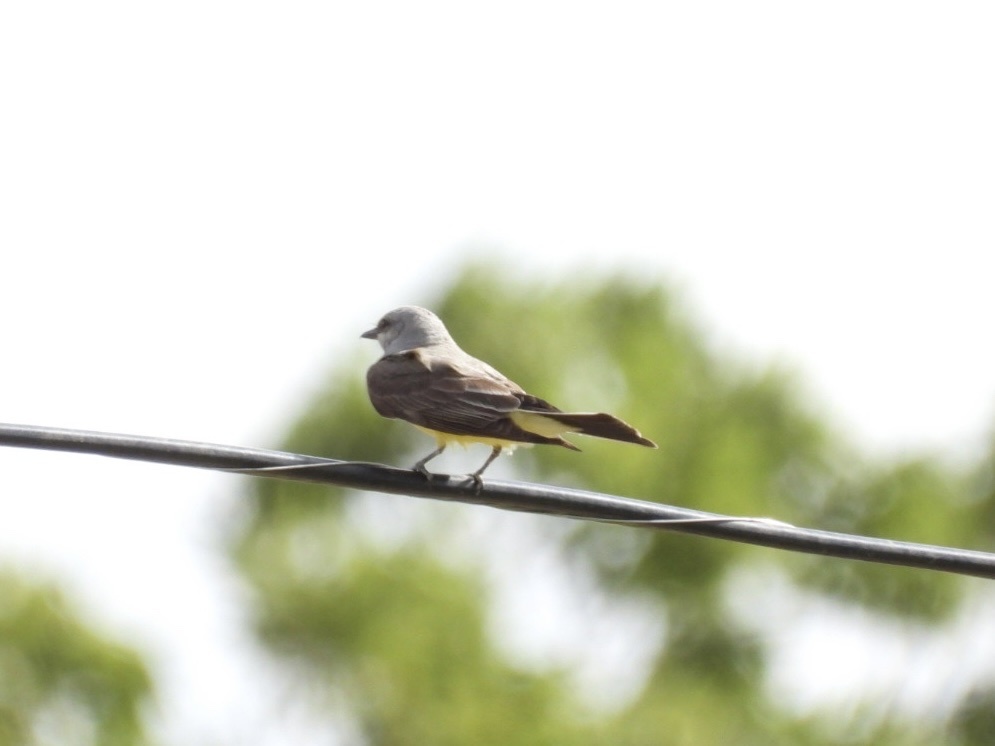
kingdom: Animalia
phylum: Chordata
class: Aves
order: Passeriformes
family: Tyrannidae
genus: Tyrannus
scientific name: Tyrannus verticalis
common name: Western kingbird
